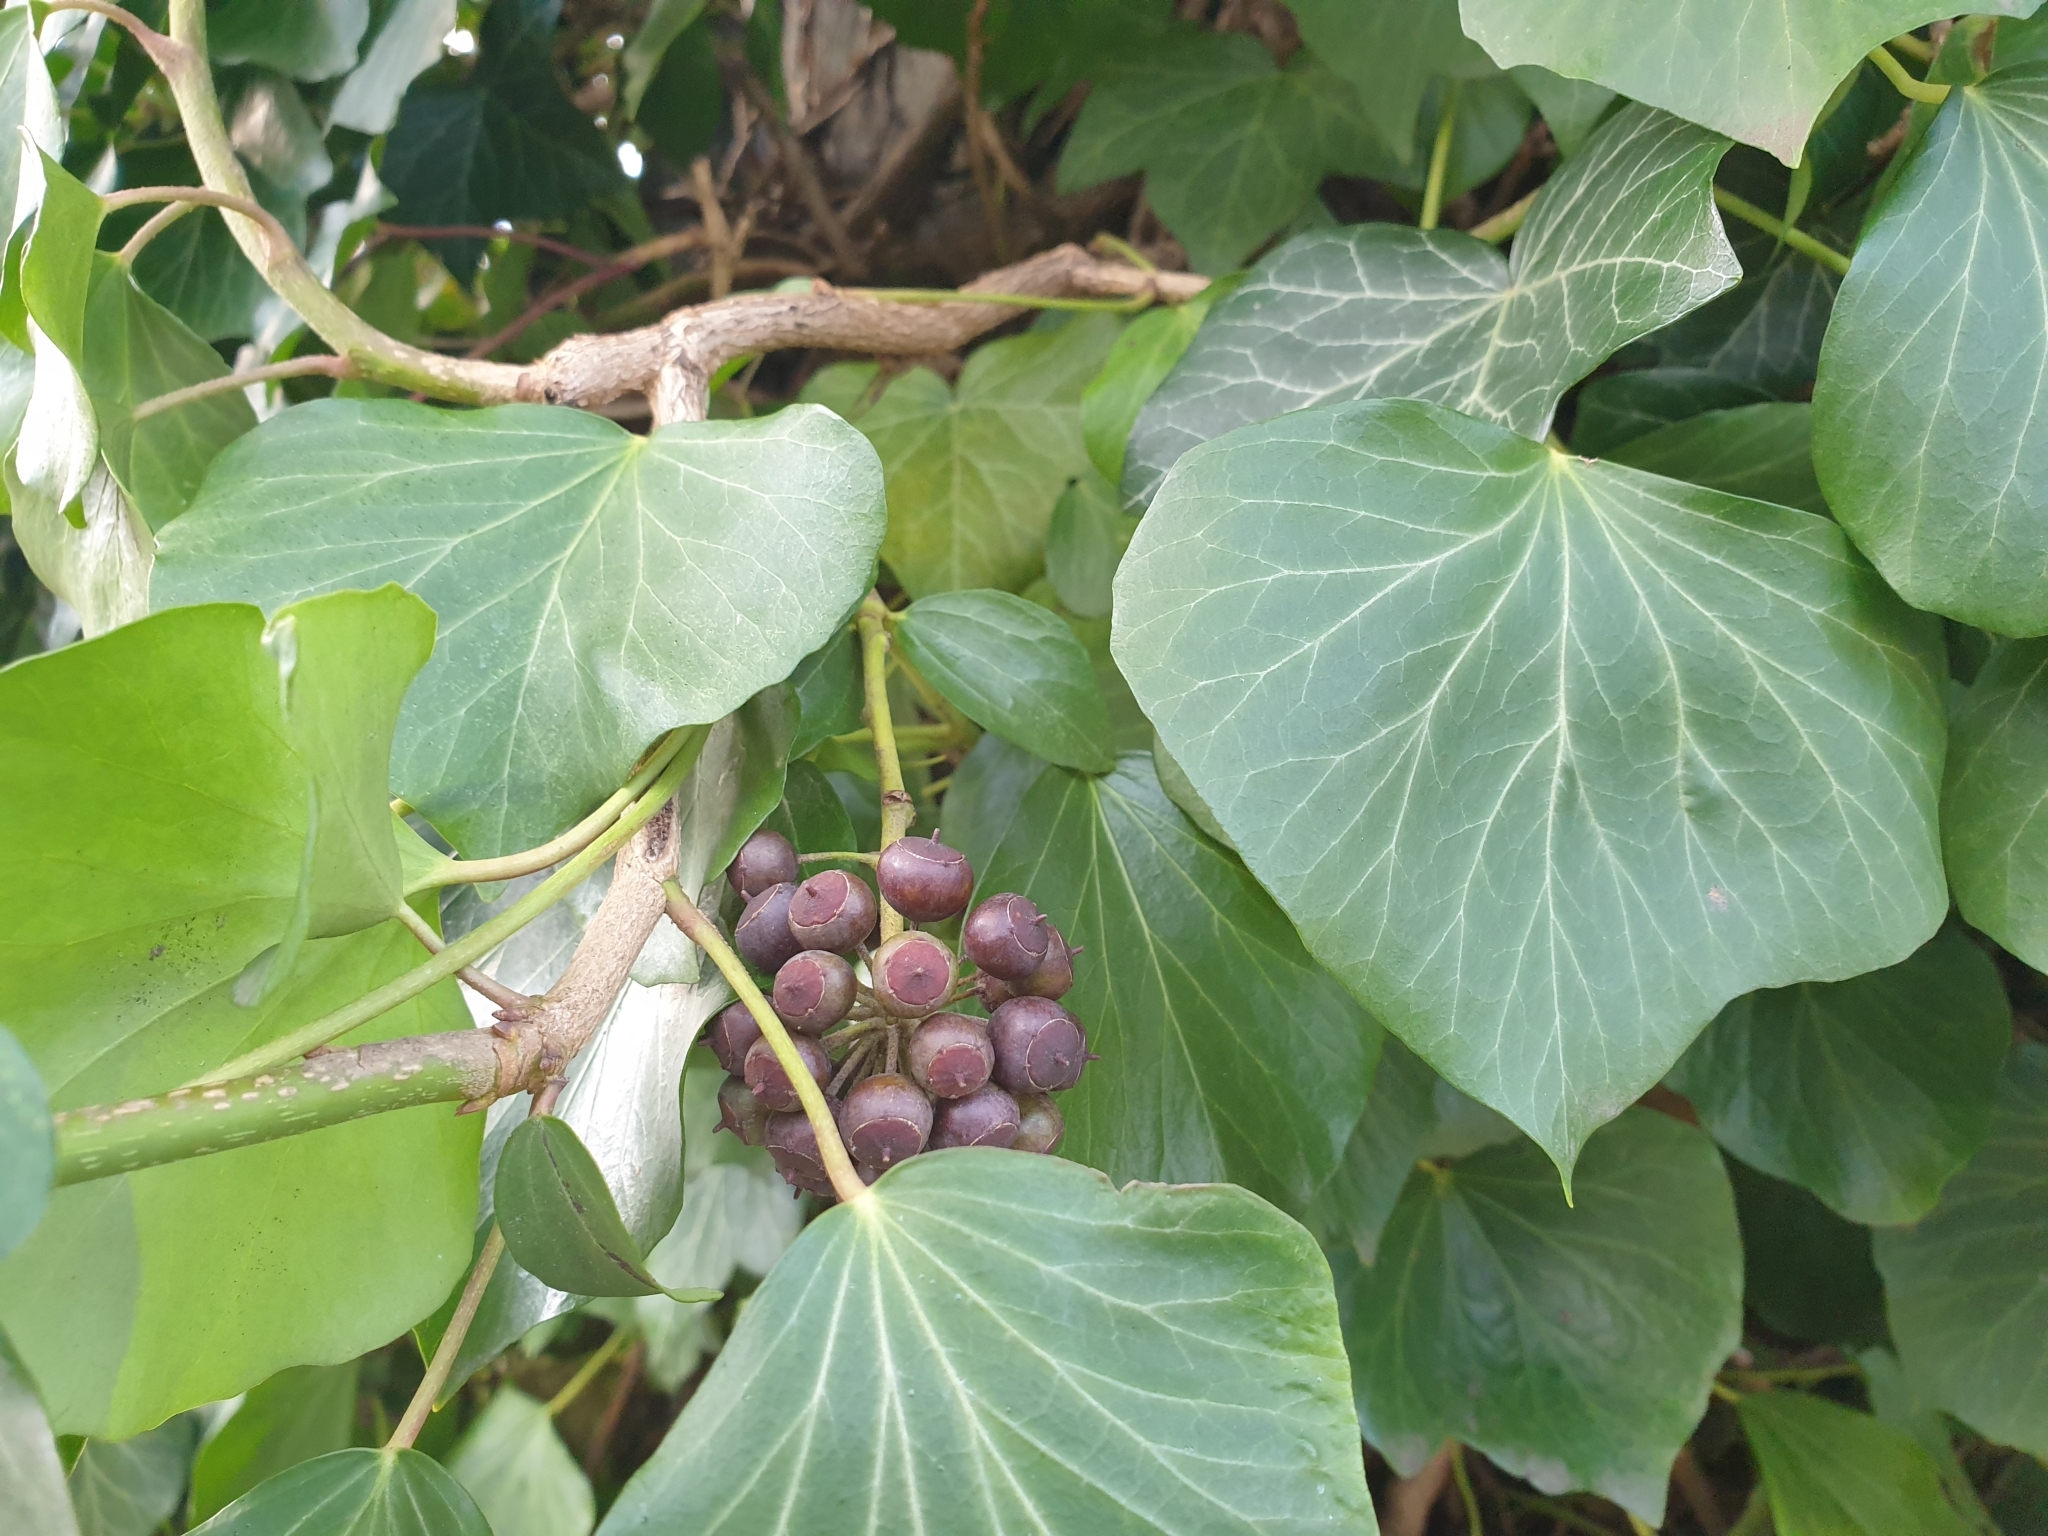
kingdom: Plantae
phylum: Tracheophyta
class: Magnoliopsida
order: Apiales
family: Araliaceae
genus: Hedera
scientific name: Hedera helix
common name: Ivy
